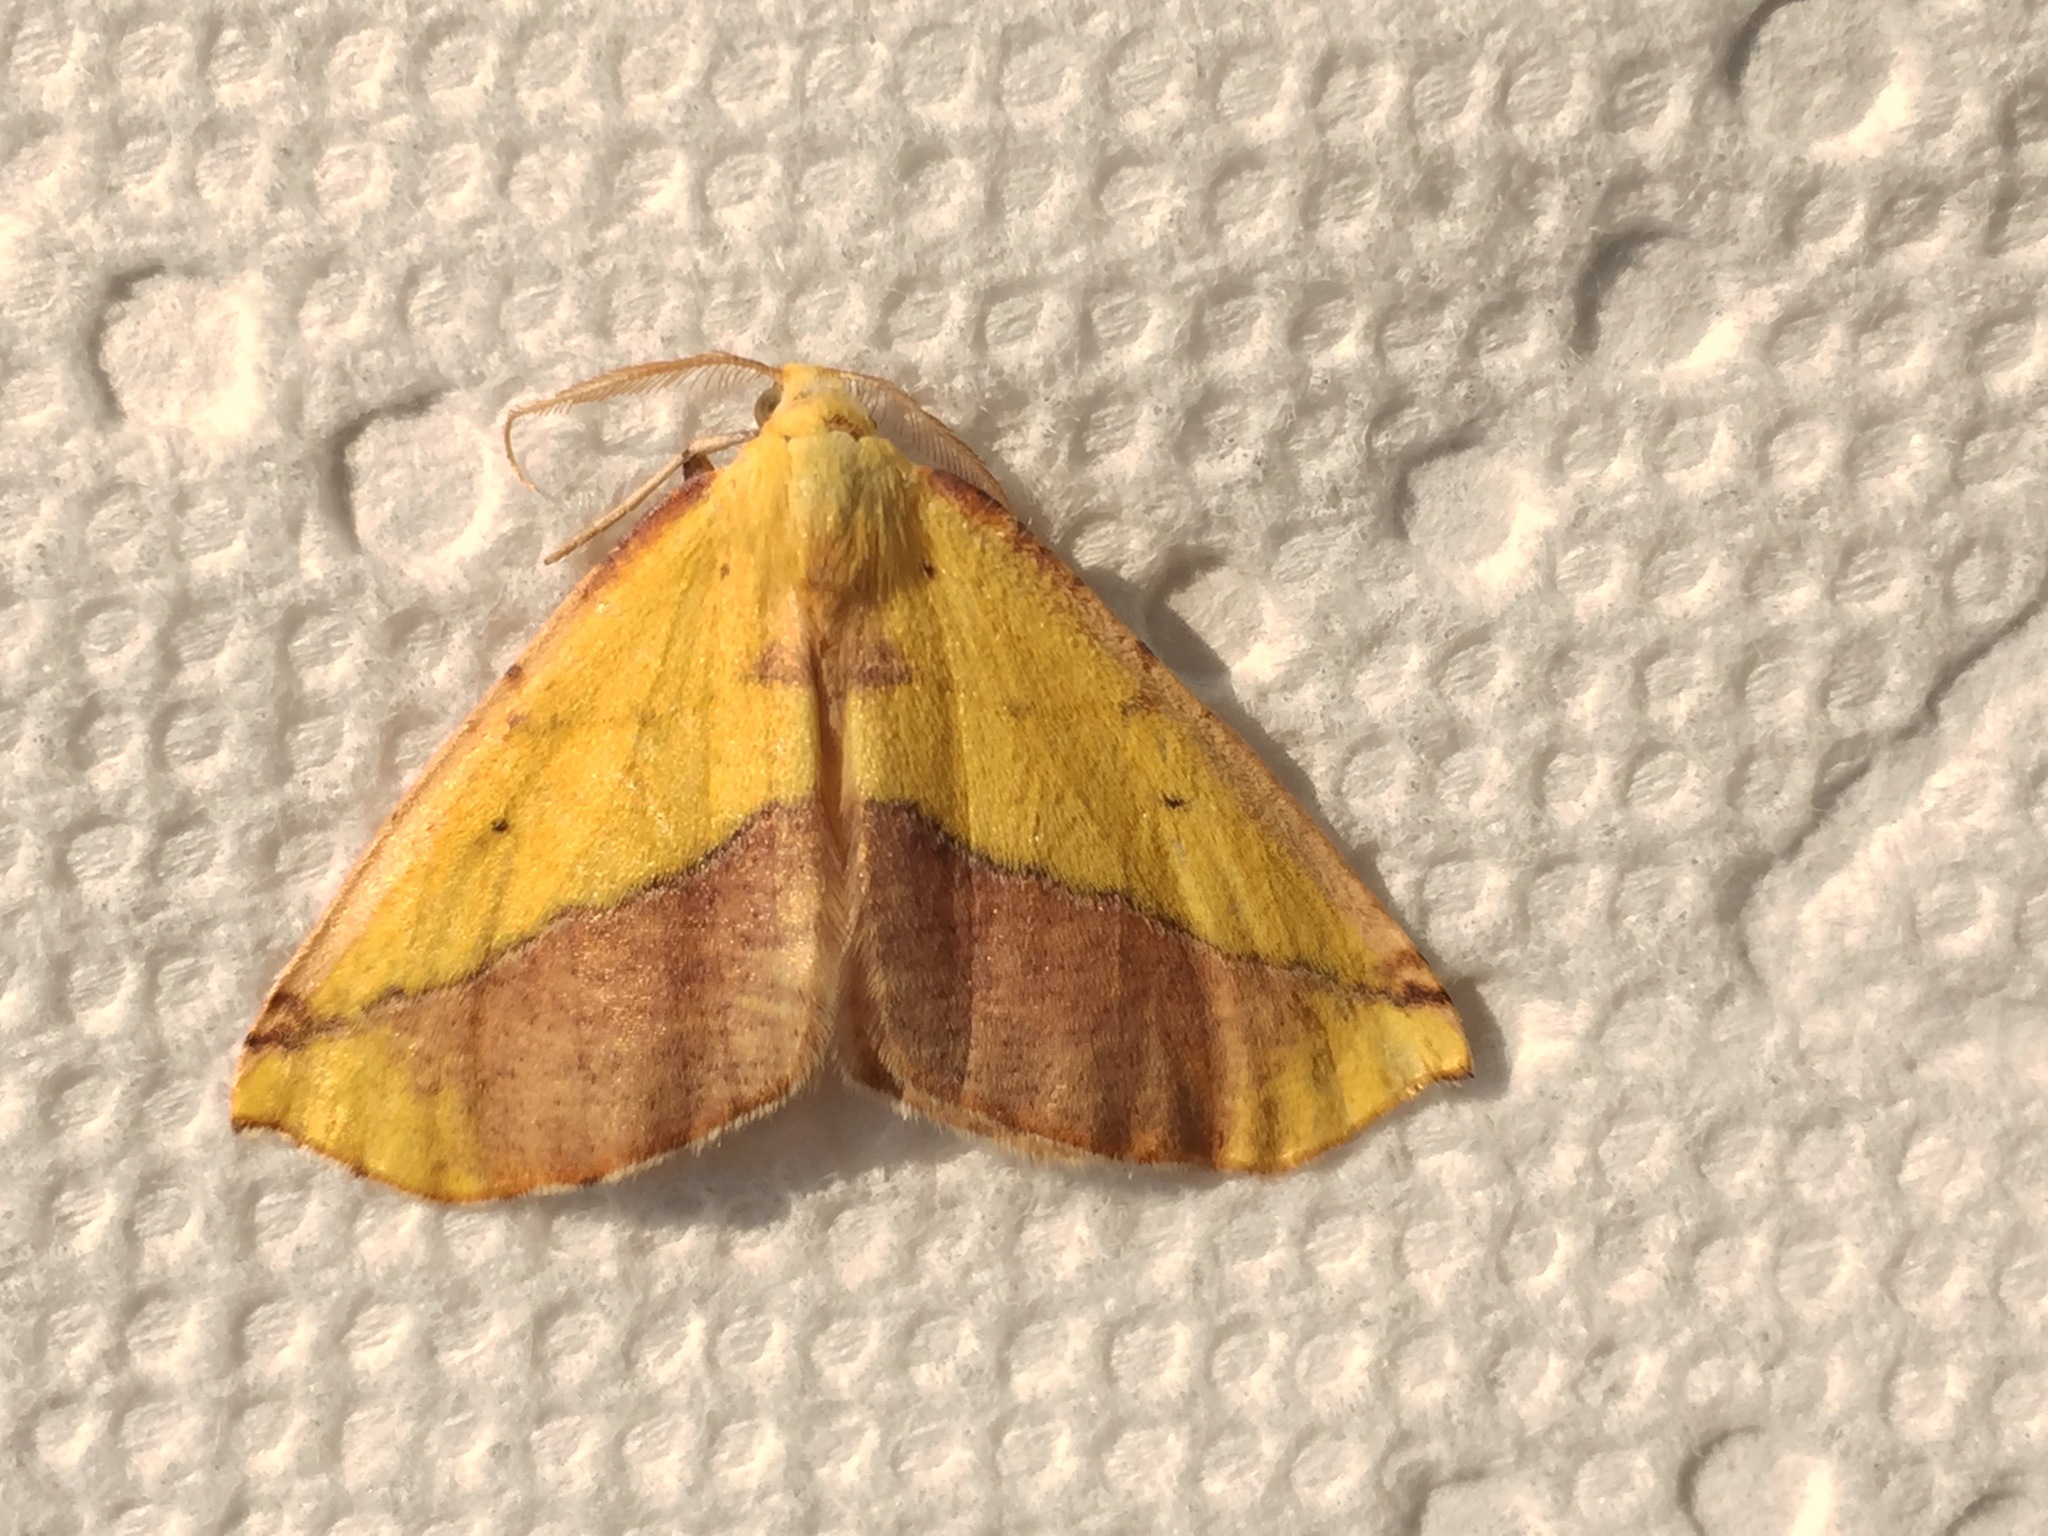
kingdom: Animalia
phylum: Arthropoda
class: Insecta
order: Lepidoptera
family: Geometridae
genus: Sicya
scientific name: Sicya macularia
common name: Sharp-lined yellow
